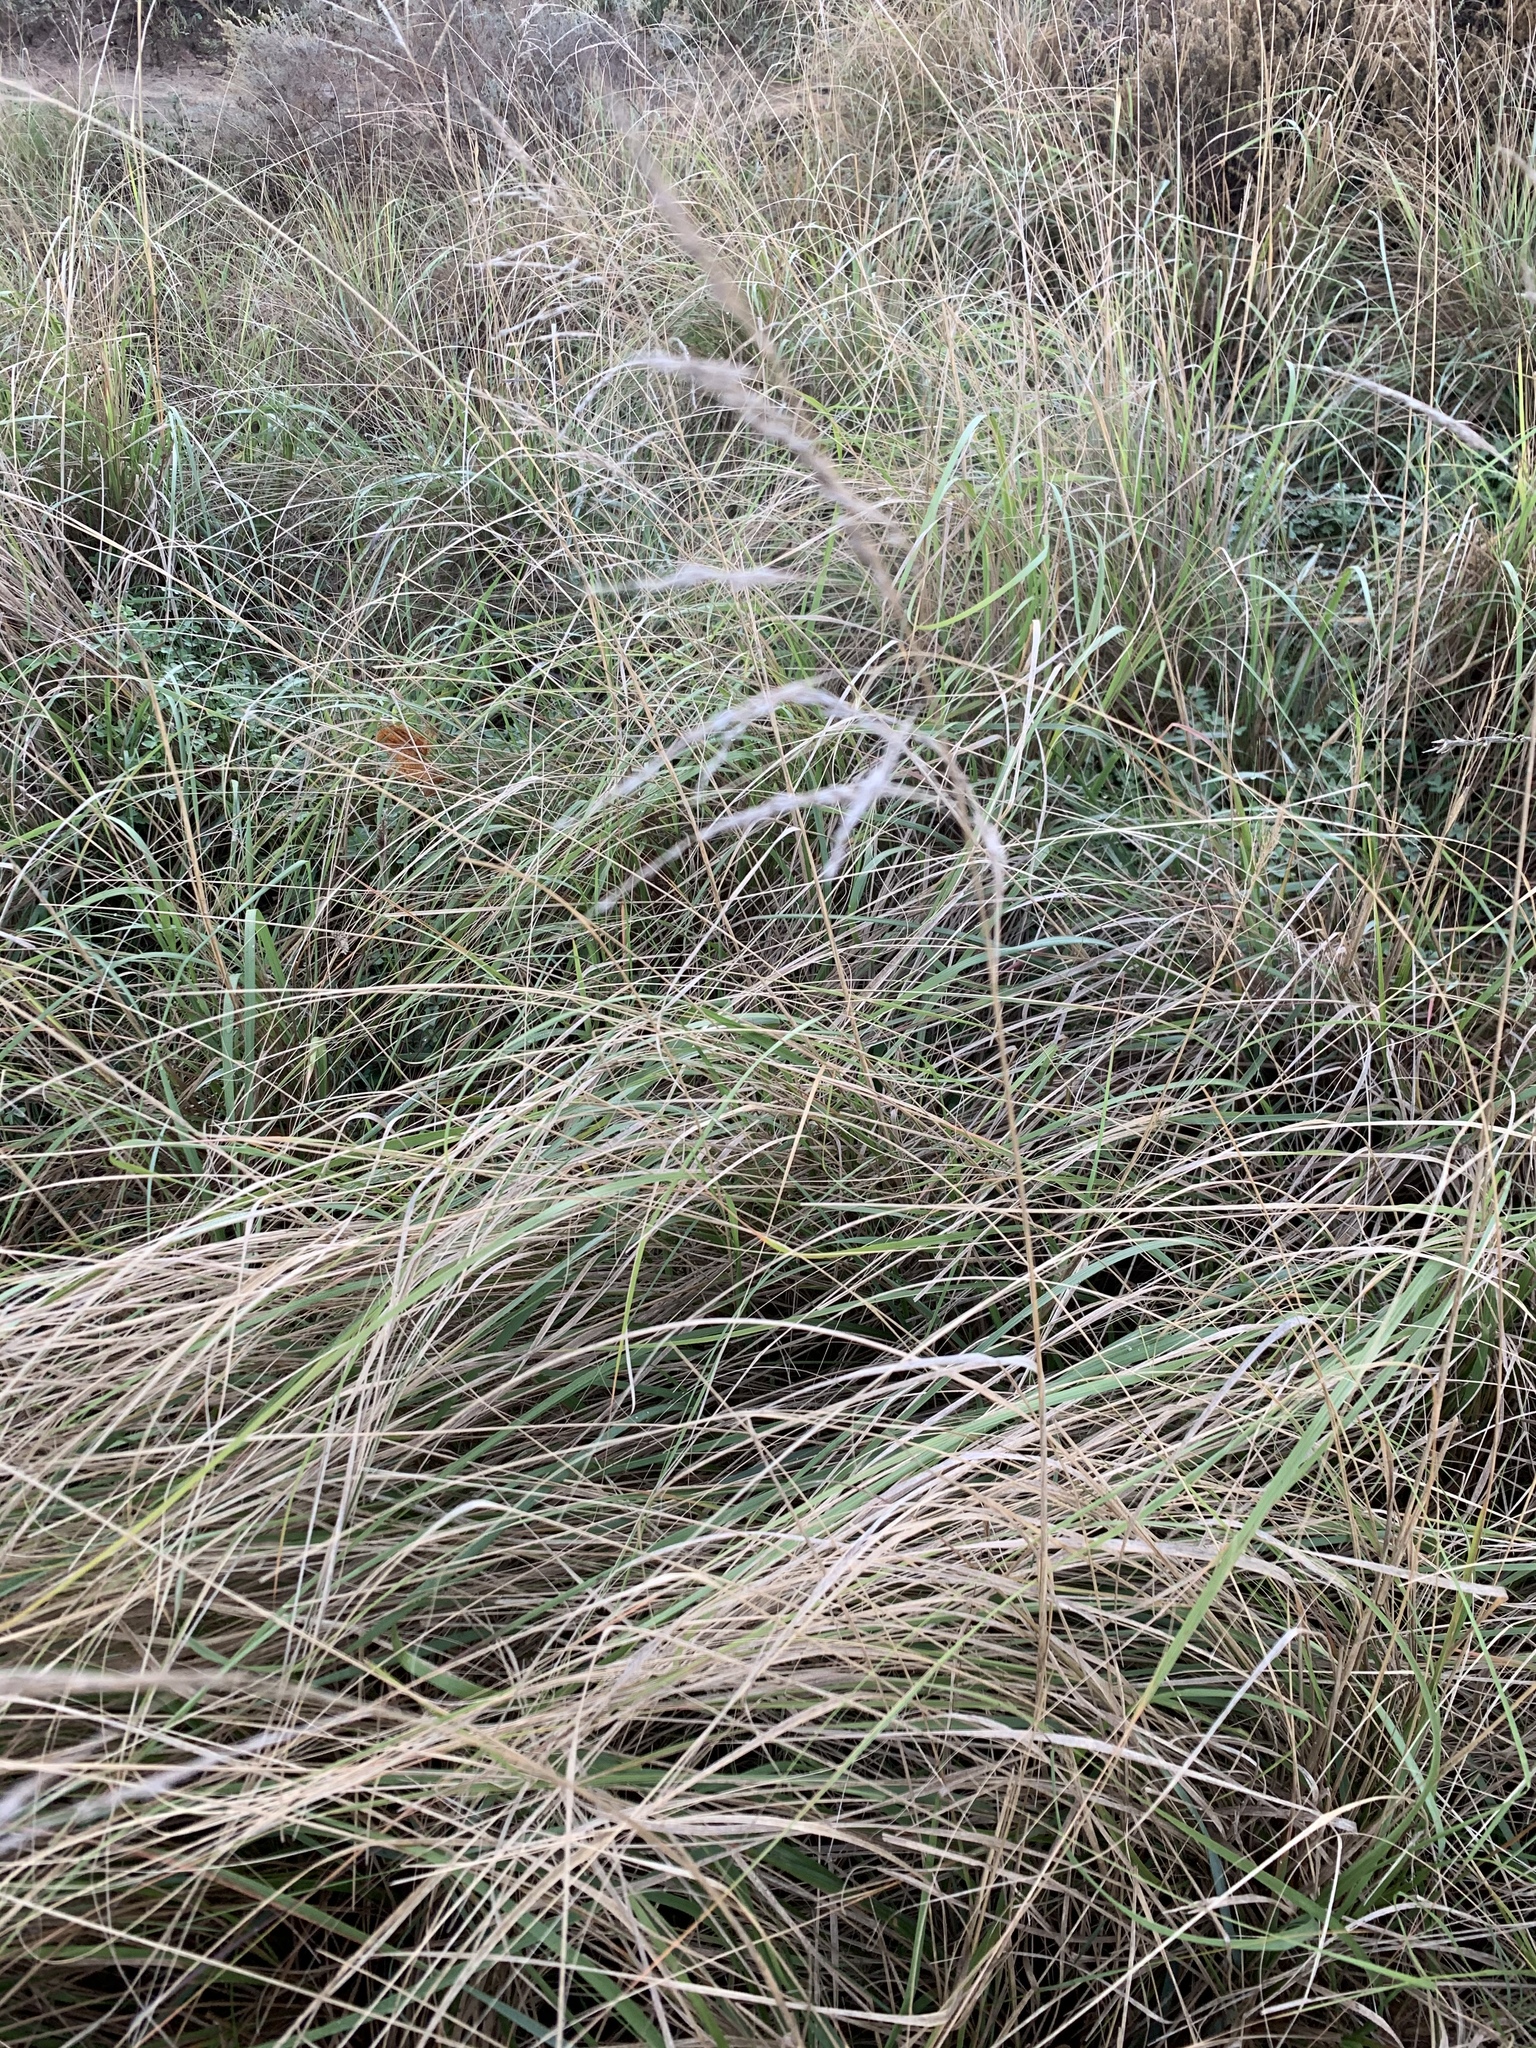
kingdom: Plantae
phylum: Tracheophyta
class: Liliopsida
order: Poales
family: Poaceae
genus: Eragrostis
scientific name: Eragrostis curvula
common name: African love-grass
